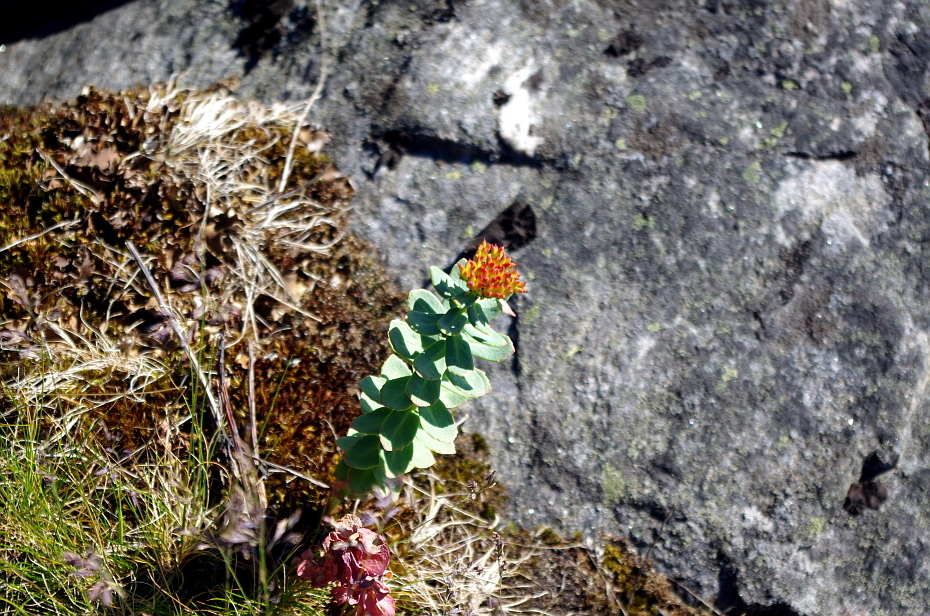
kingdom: Plantae
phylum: Tracheophyta
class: Magnoliopsida
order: Saxifragales
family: Crassulaceae
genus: Rhodiola
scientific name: Rhodiola rosea
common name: Roseroot
